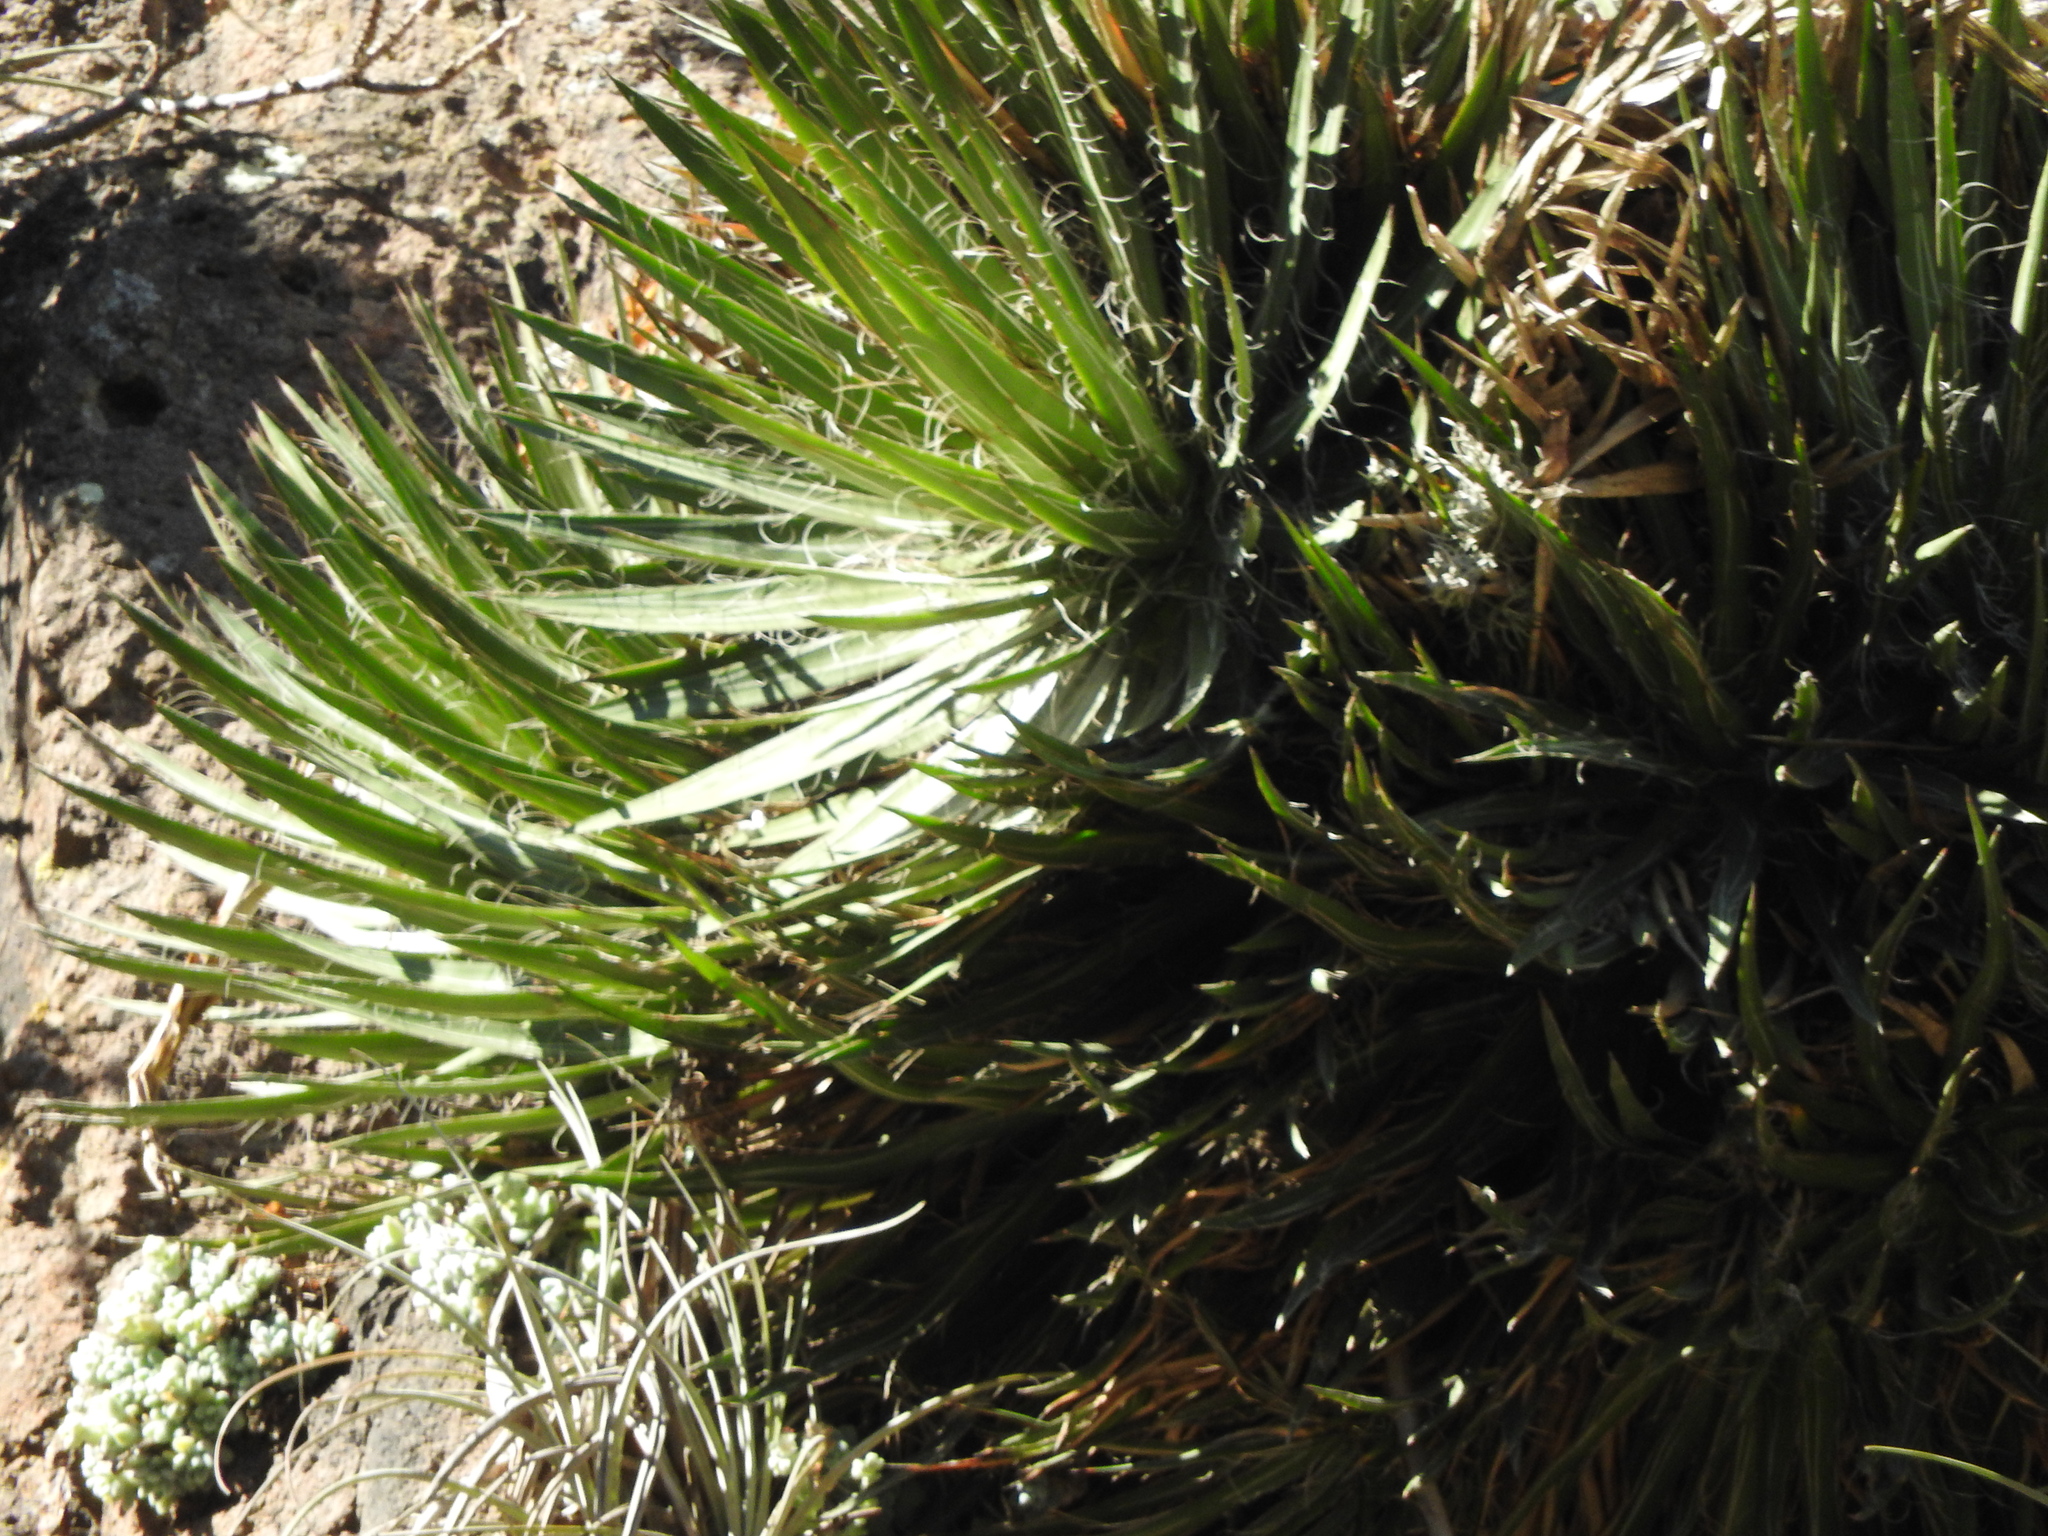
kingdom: Plantae
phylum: Tracheophyta
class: Liliopsida
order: Asparagales
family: Asparagaceae
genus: Agave
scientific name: Agave schidigera
